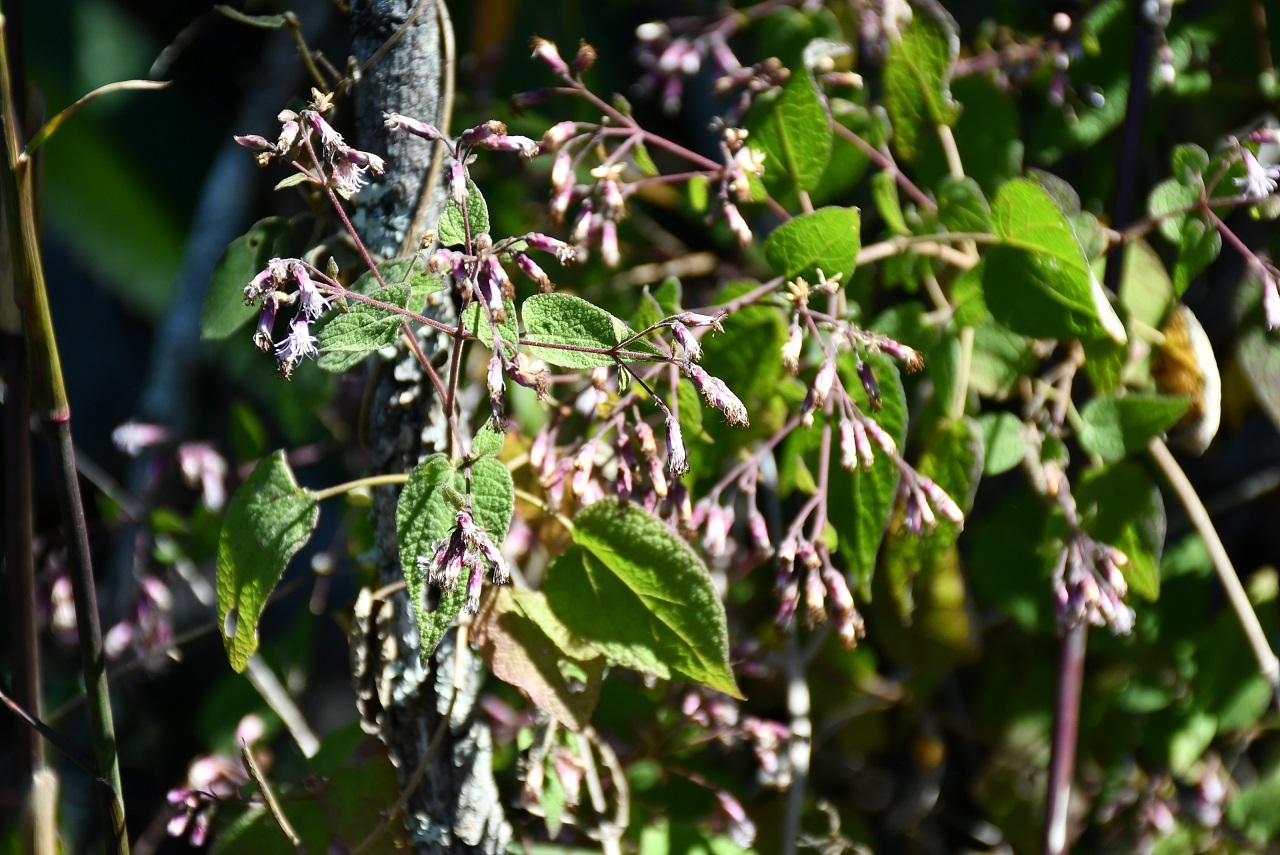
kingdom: Plantae
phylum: Tracheophyta
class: Magnoliopsida
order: Asterales
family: Asteraceae
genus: Peteravenia
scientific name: Peteravenia schultzii
